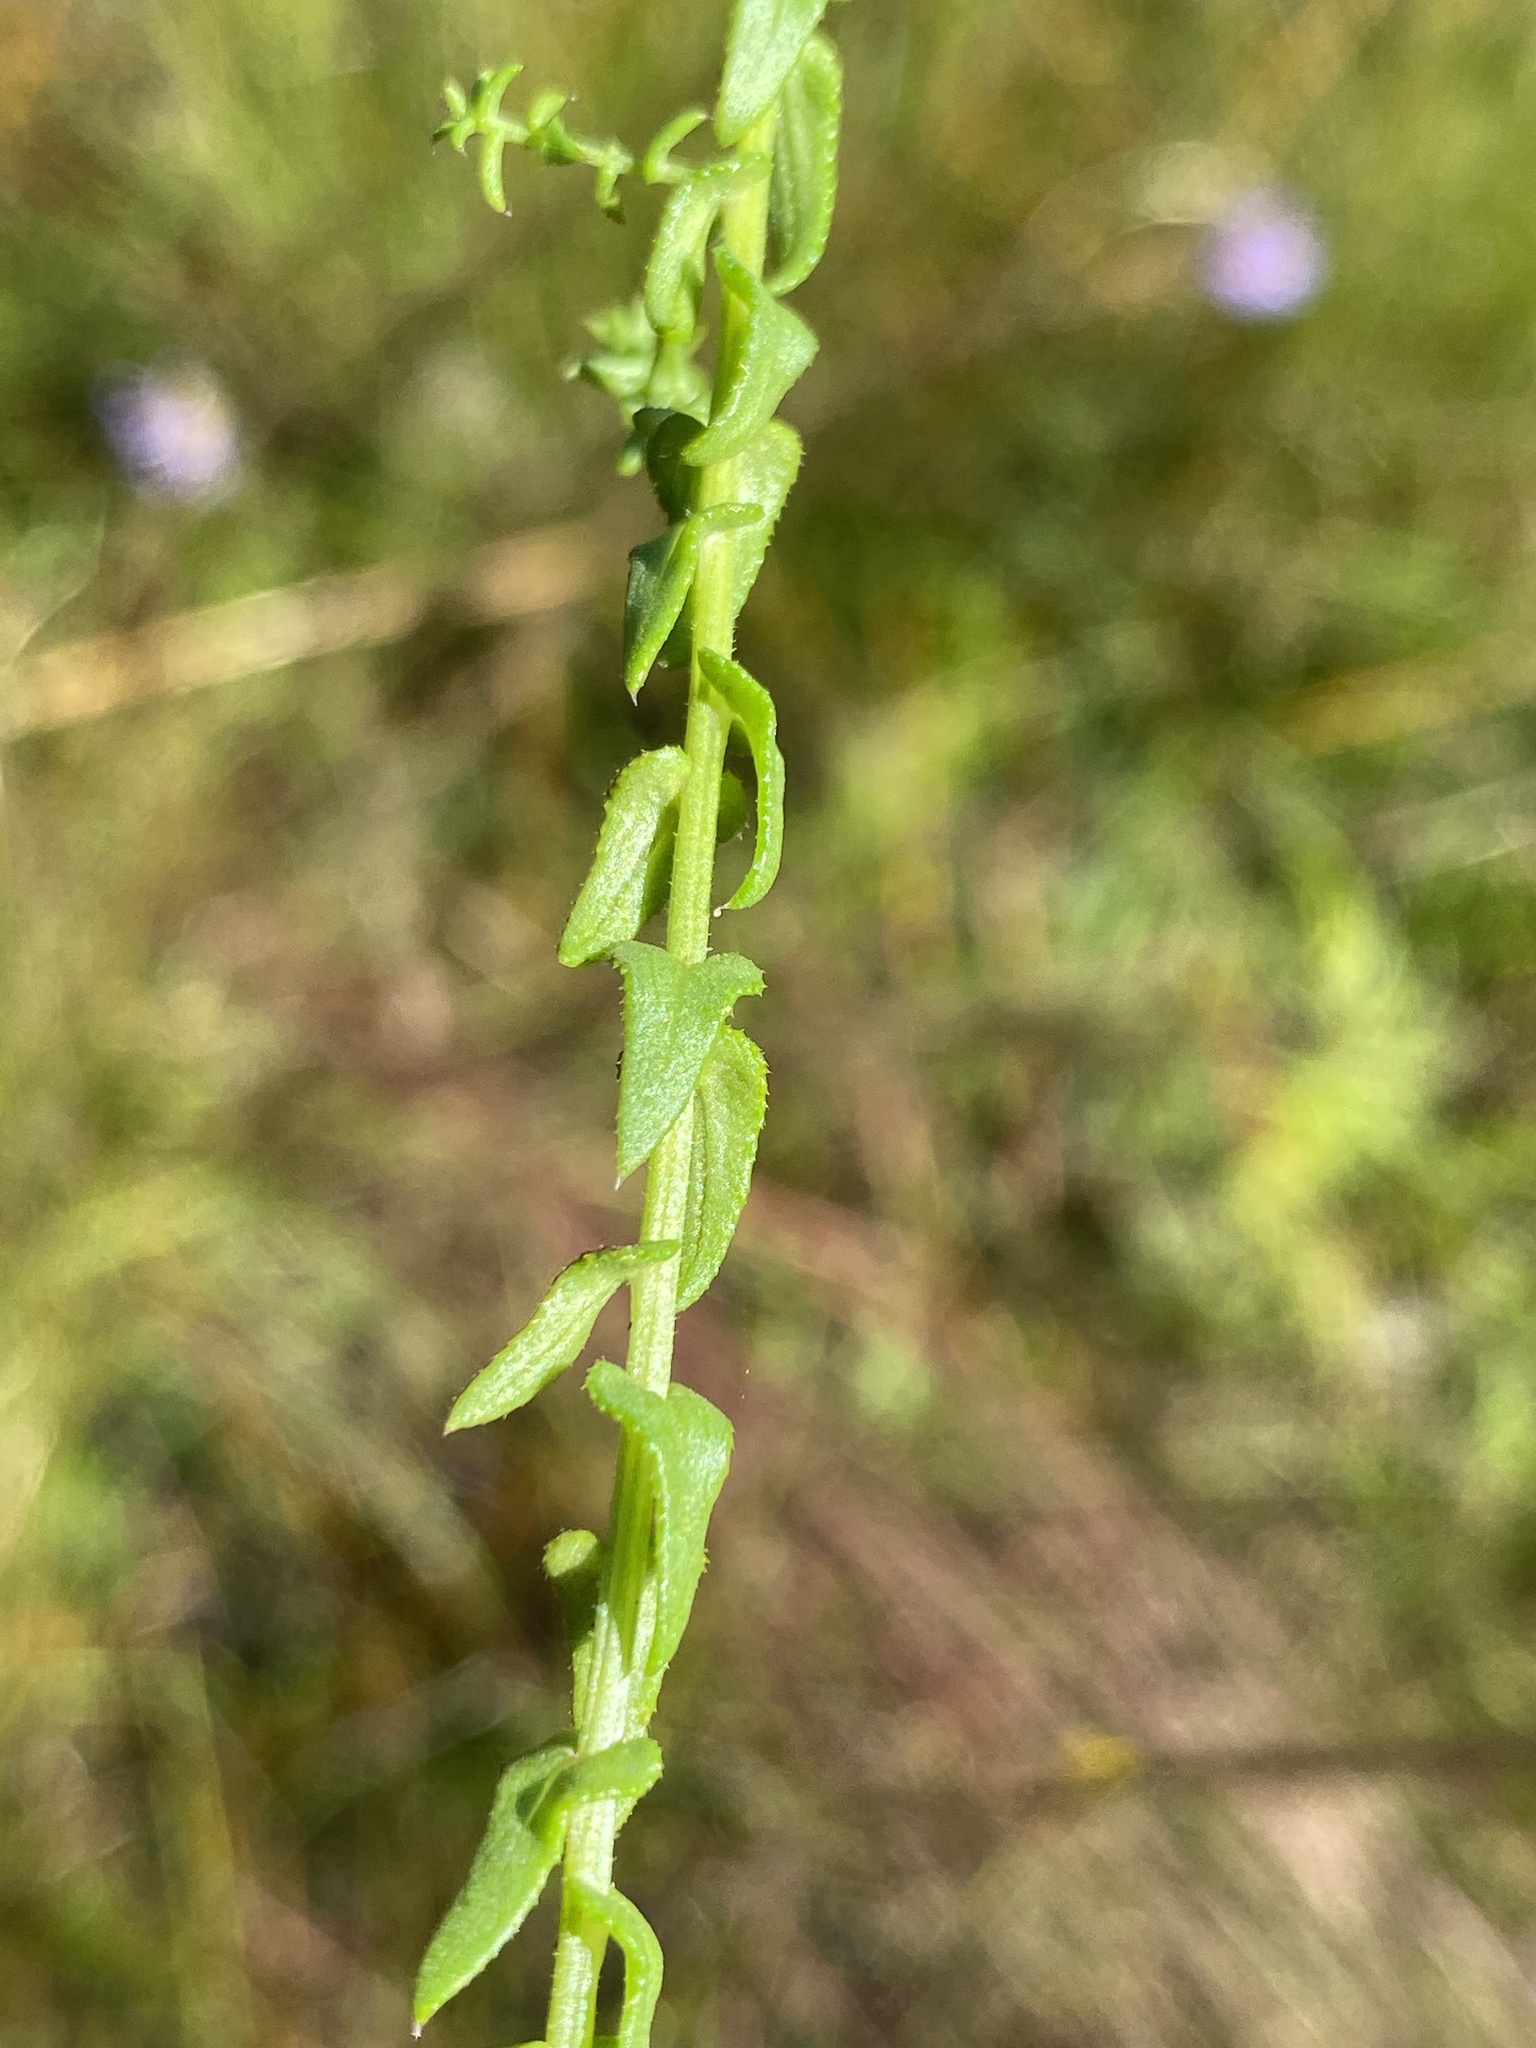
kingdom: Plantae
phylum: Tracheophyta
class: Magnoliopsida
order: Asterales
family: Asteraceae
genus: Symphyotrichum
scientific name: Symphyotrichum walteri
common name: Walter's aster
